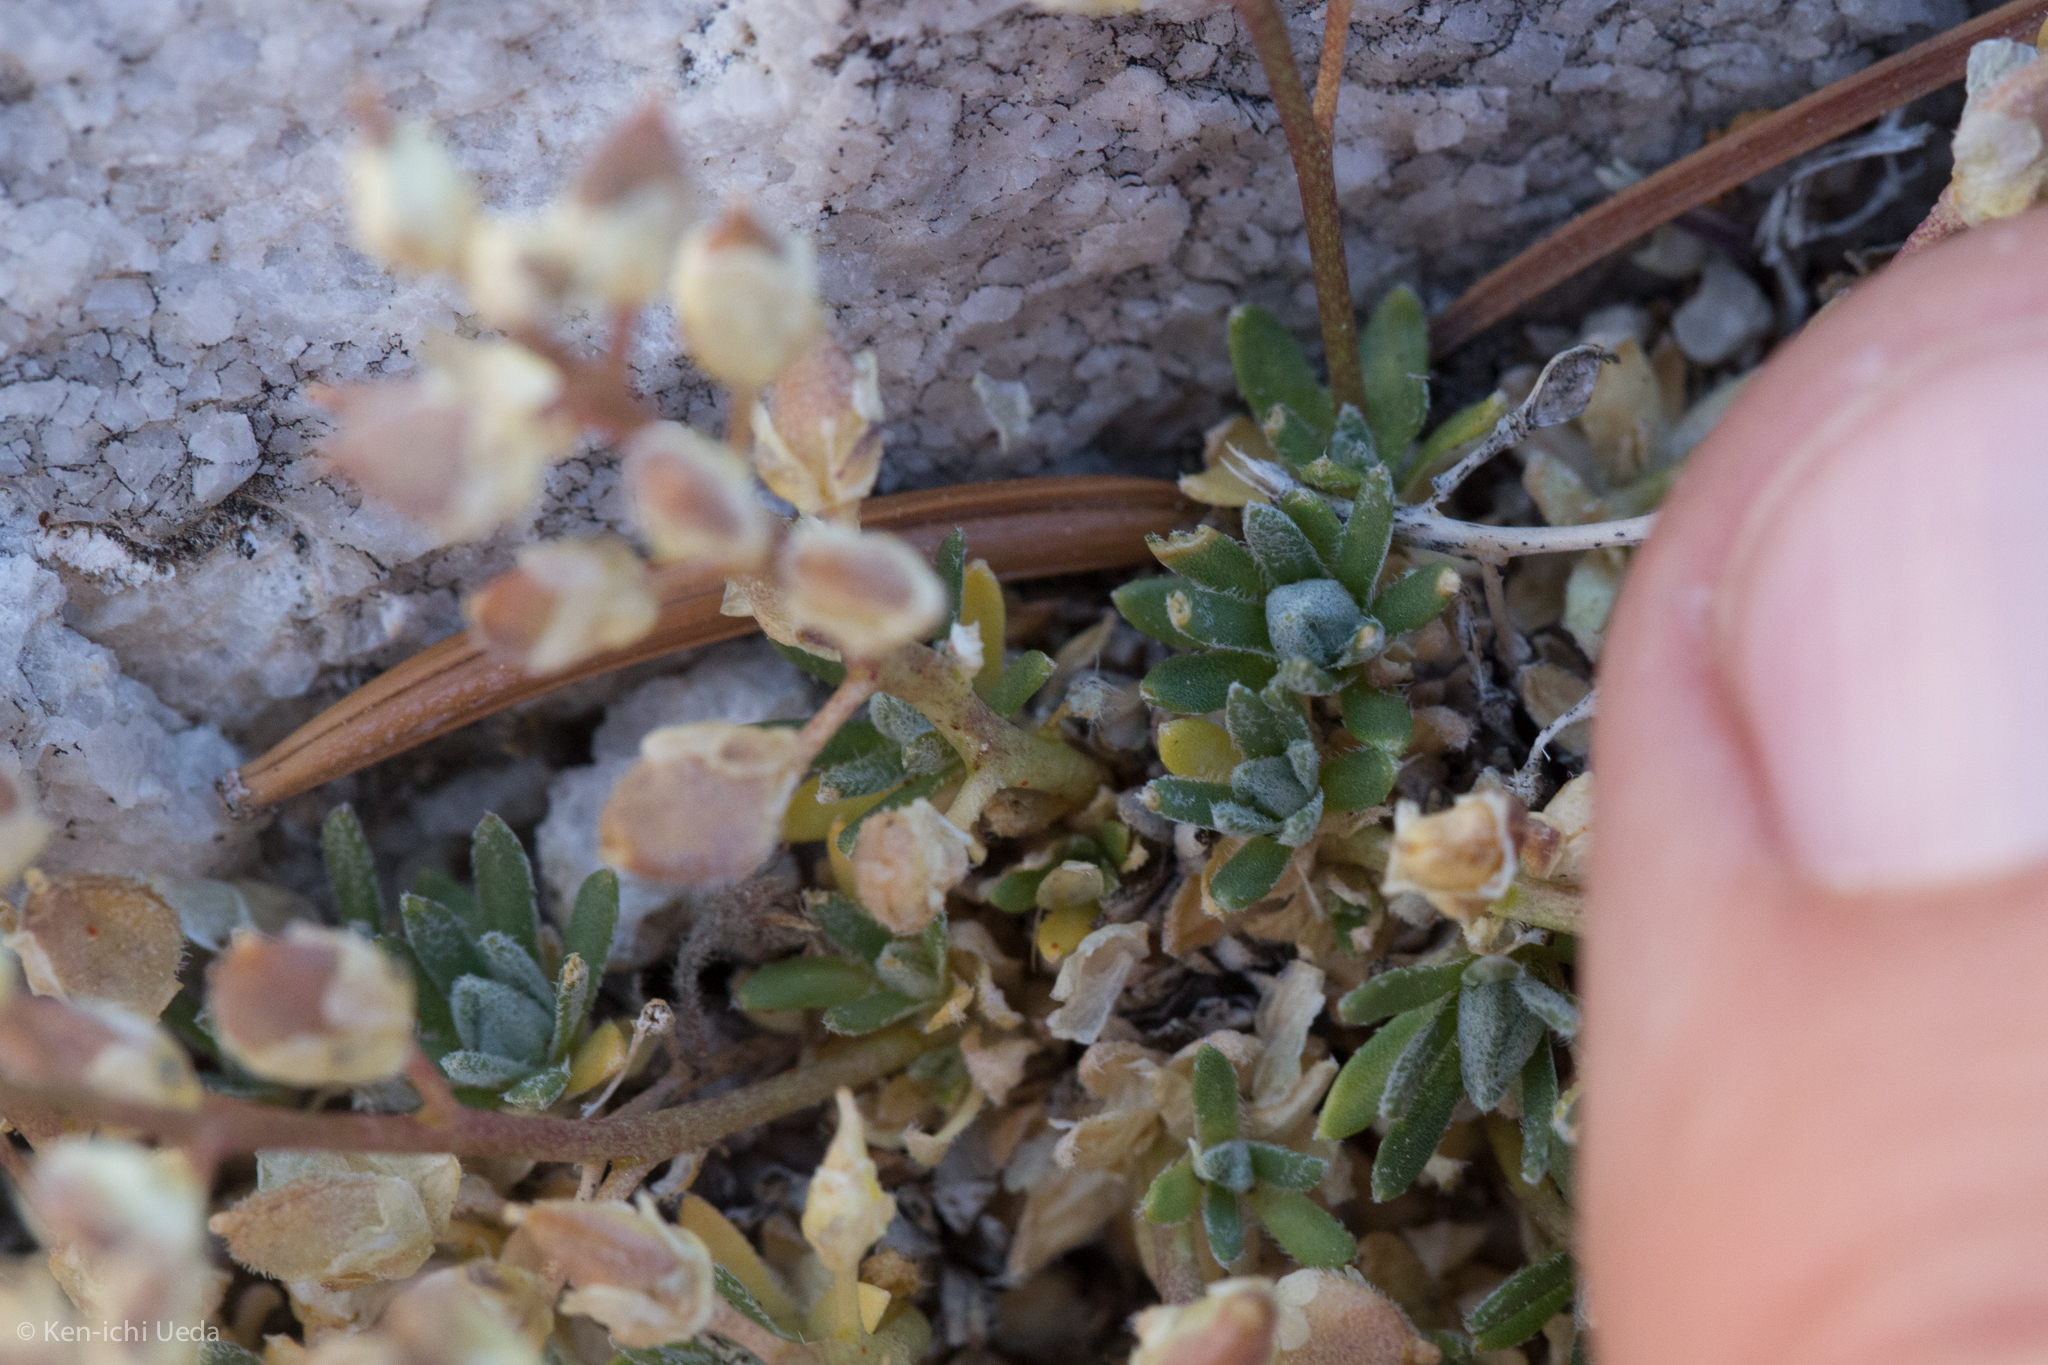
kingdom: Plantae
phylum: Tracheophyta
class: Magnoliopsida
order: Brassicales
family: Brassicaceae
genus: Draba
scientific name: Draba oligosperma
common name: Few-seed draba
